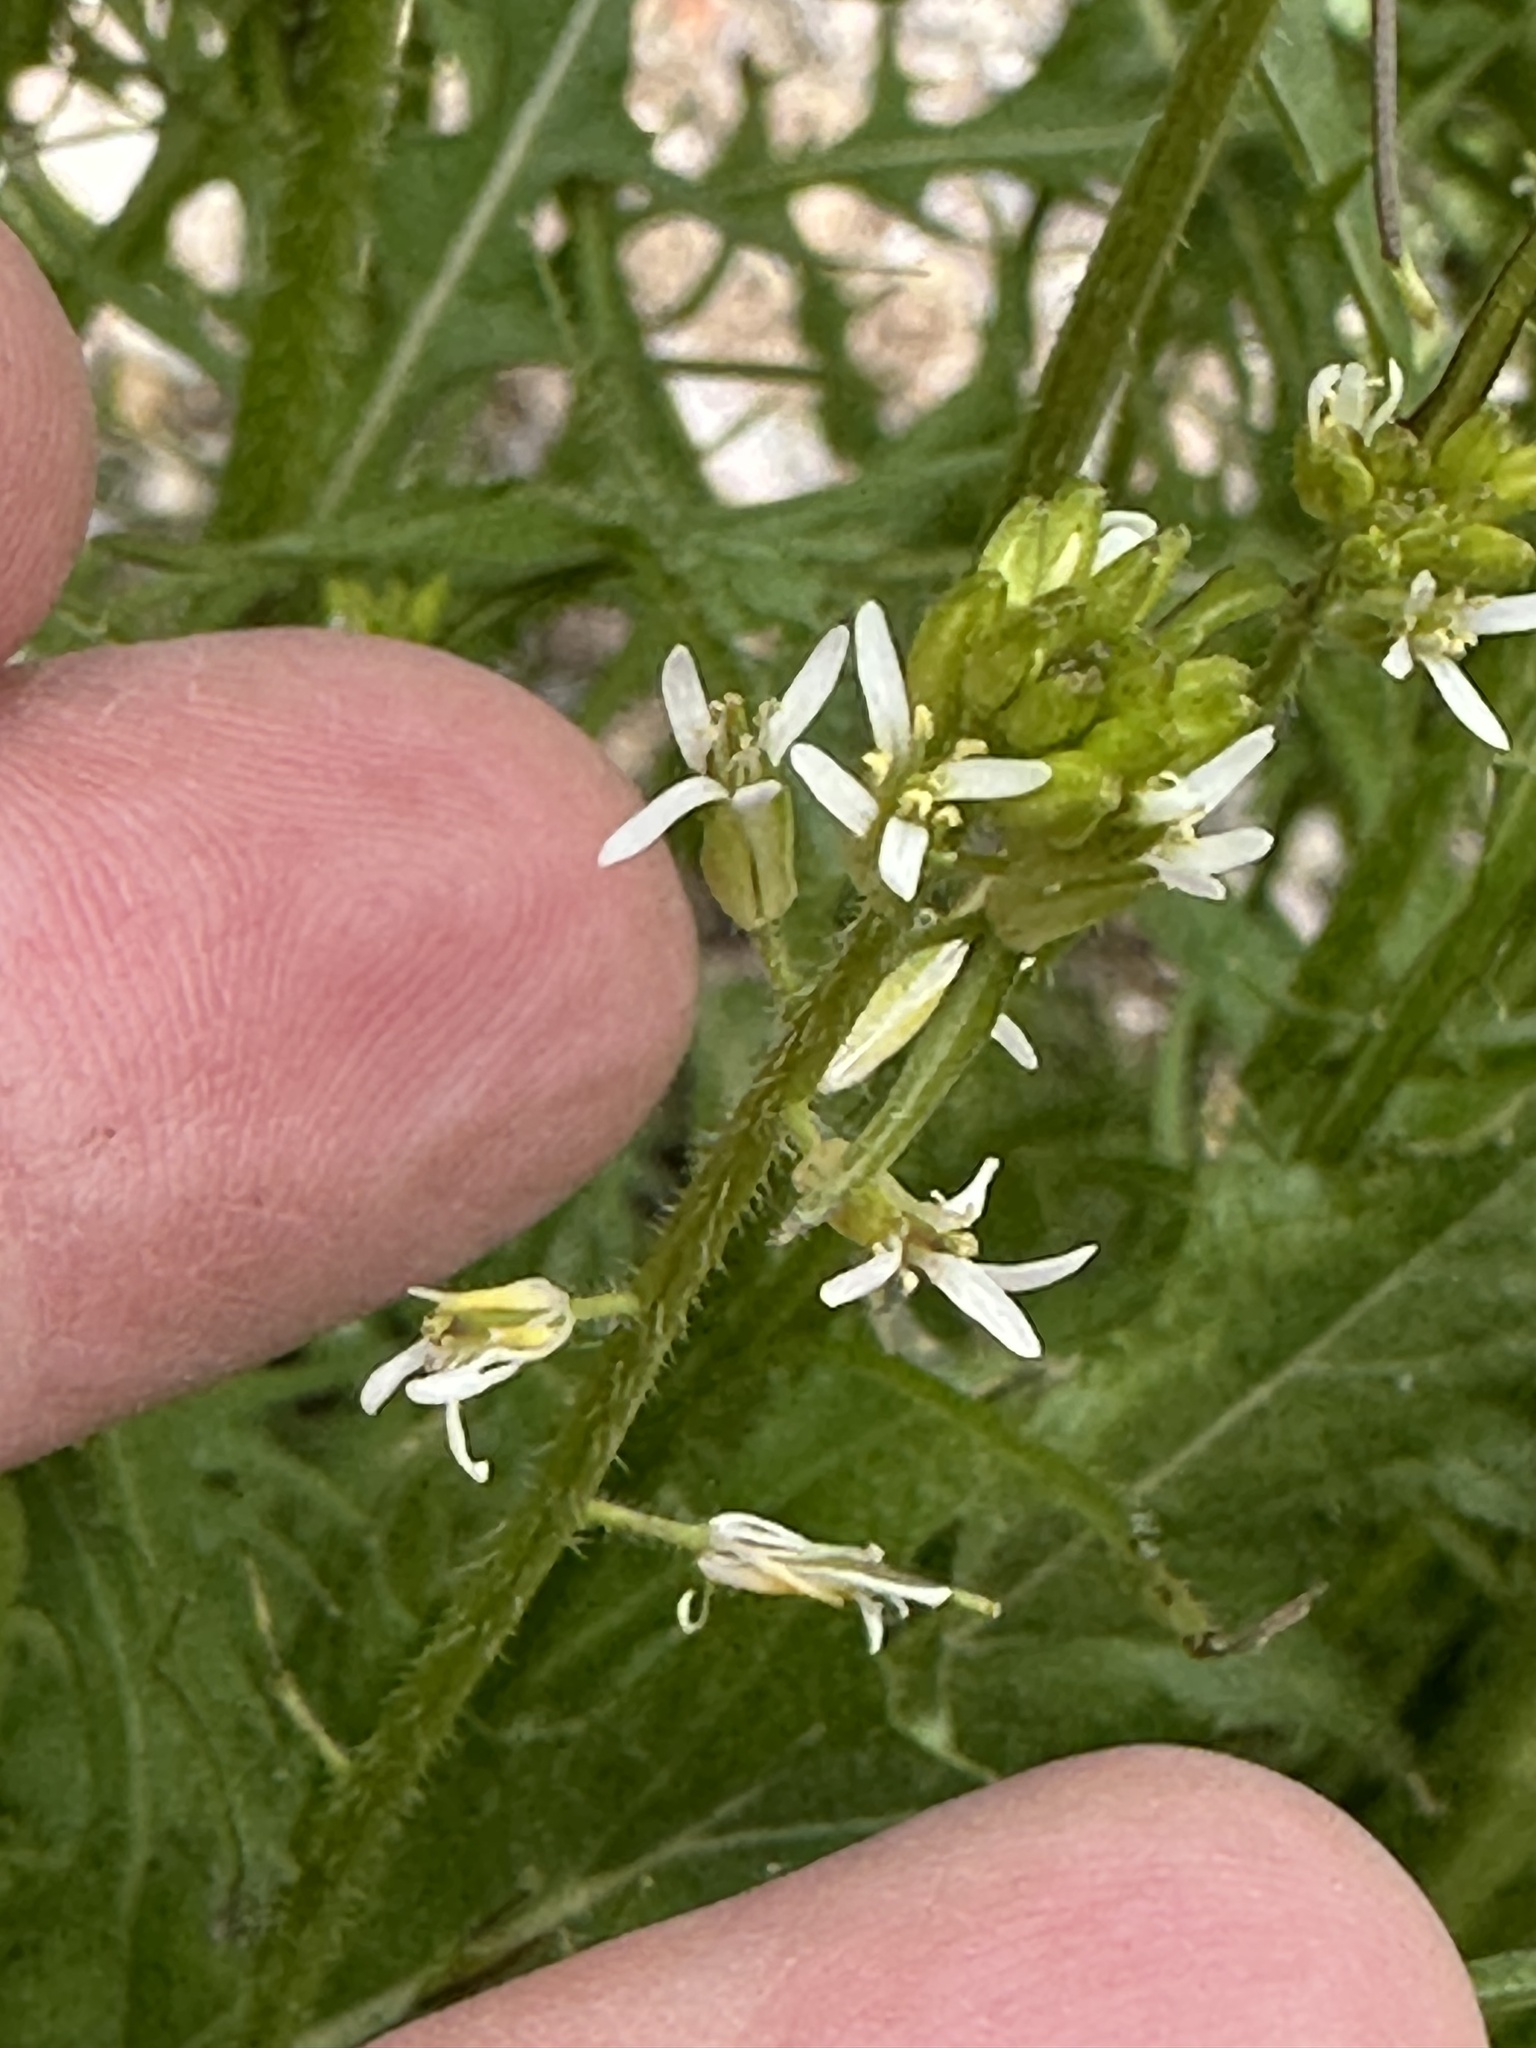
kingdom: Plantae
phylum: Tracheophyta
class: Magnoliopsida
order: Brassicales
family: Brassicaceae
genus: Streptanthus
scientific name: Streptanthus lasiophyllus
